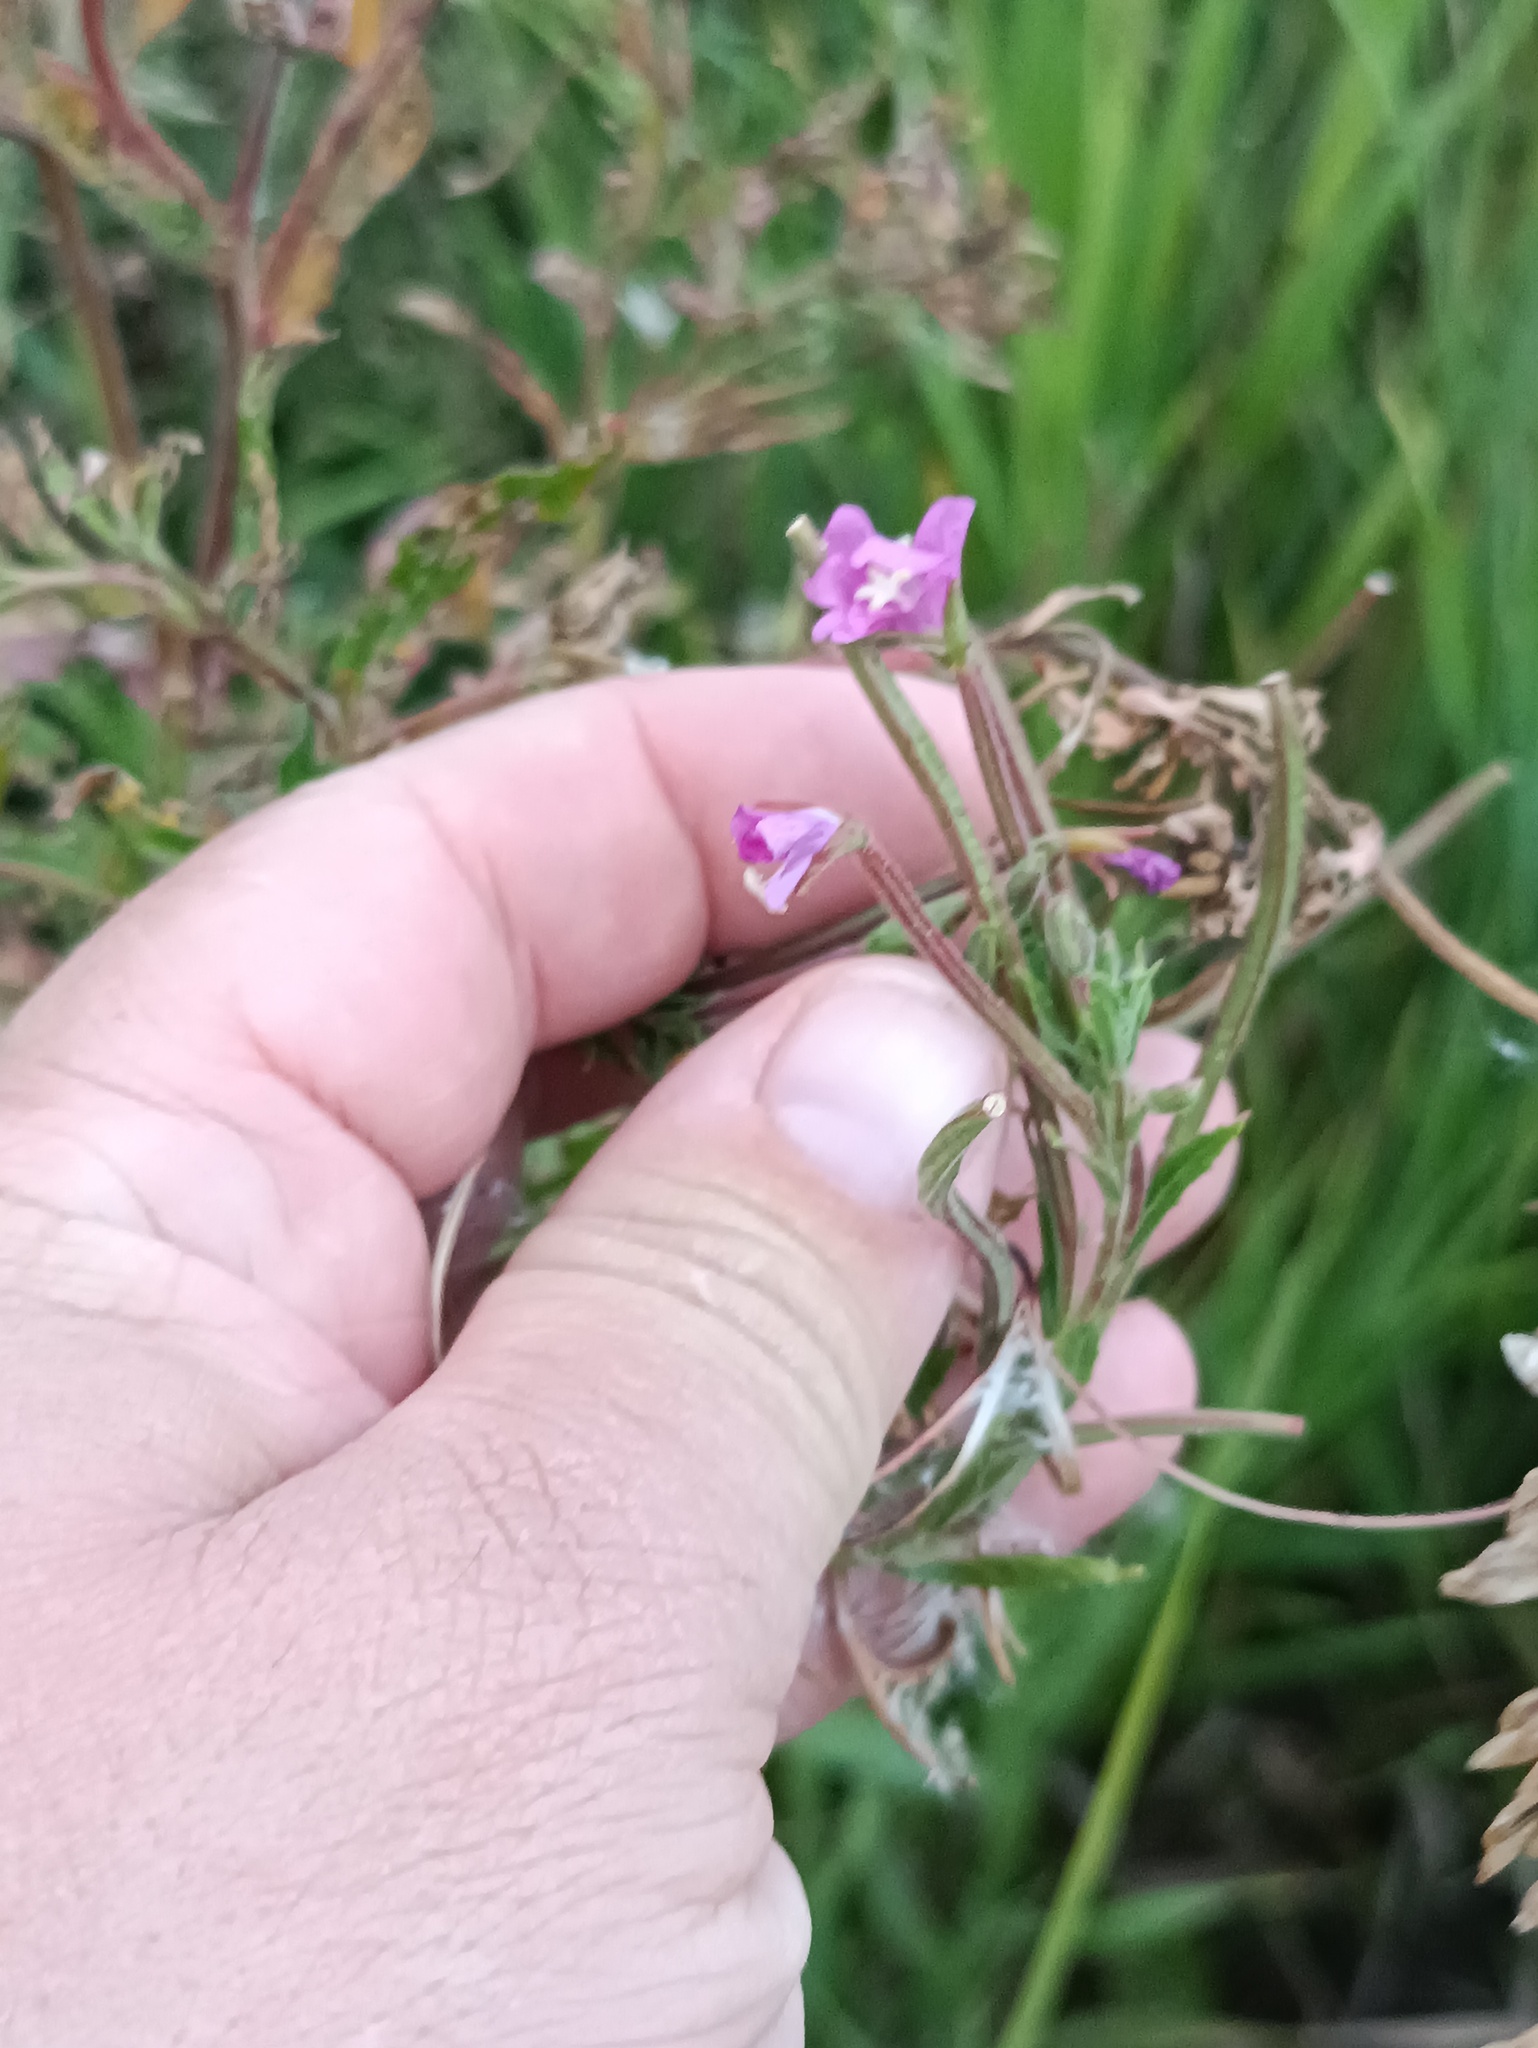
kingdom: Plantae
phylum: Tracheophyta
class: Magnoliopsida
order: Myrtales
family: Onagraceae
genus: Epilobium
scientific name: Epilobium hirsutum
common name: Great willowherb
